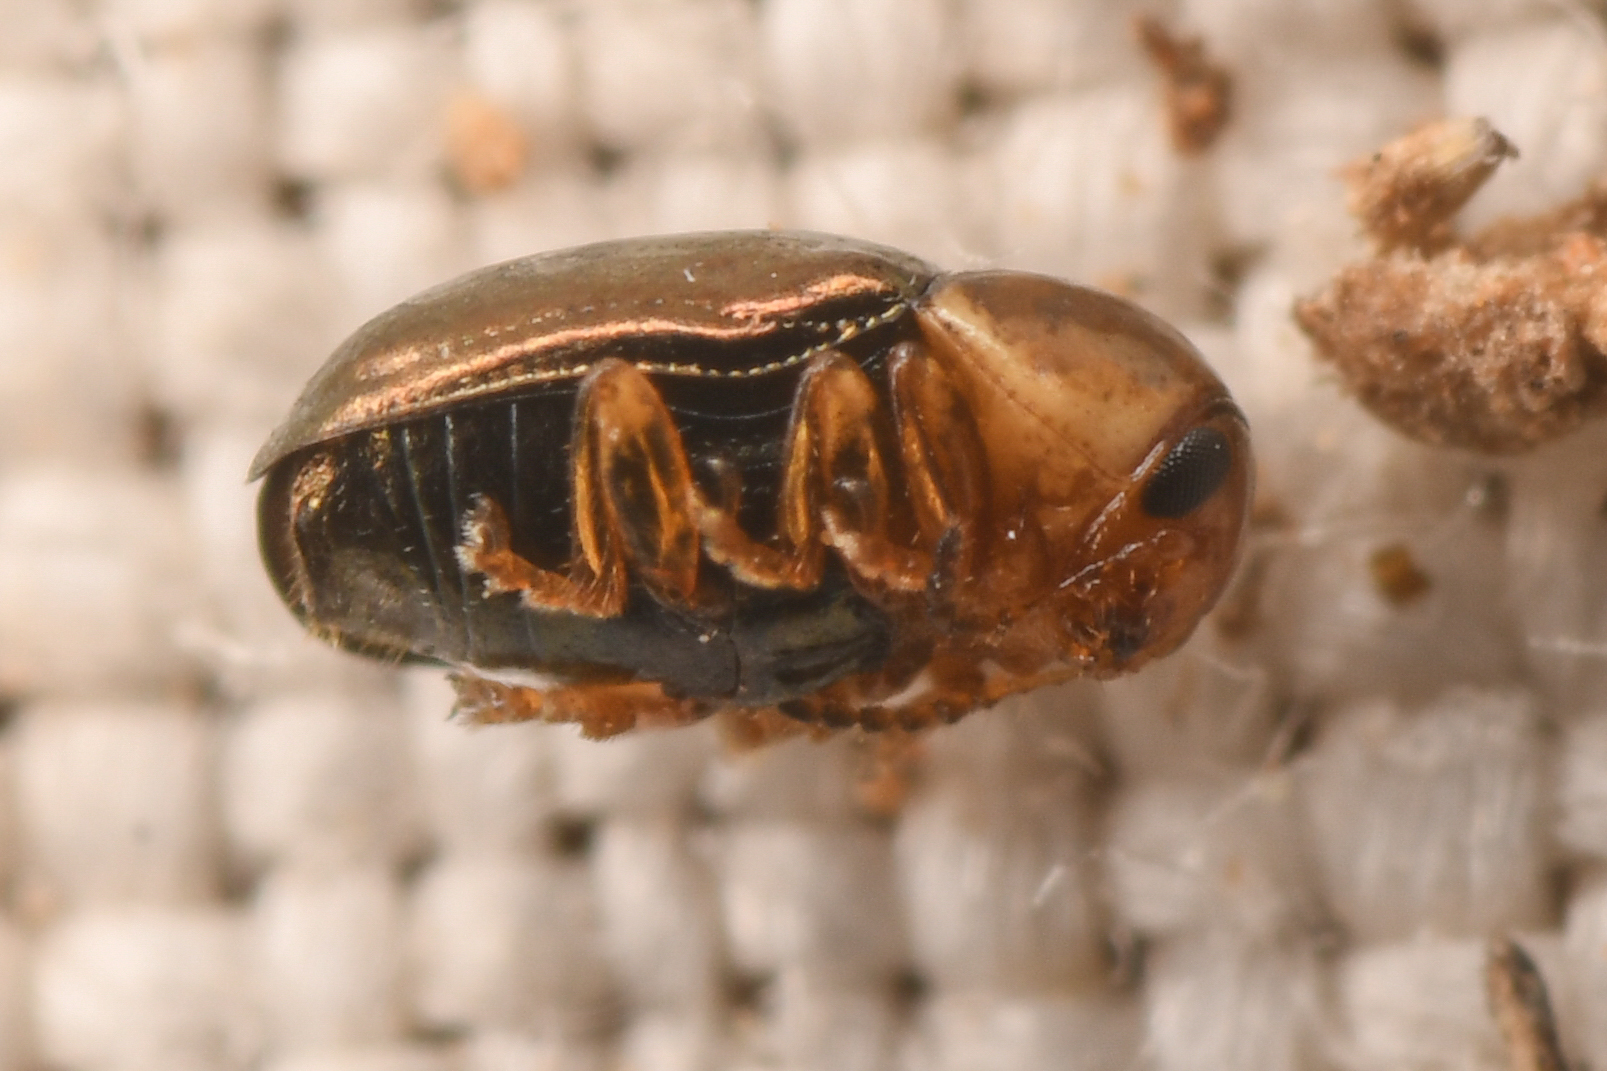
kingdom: Animalia
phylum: Arthropoda
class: Insecta
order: Coleoptera
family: Chrysomelidae
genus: Diachus
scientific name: Diachus auratus
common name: Bronze leaf beetle
